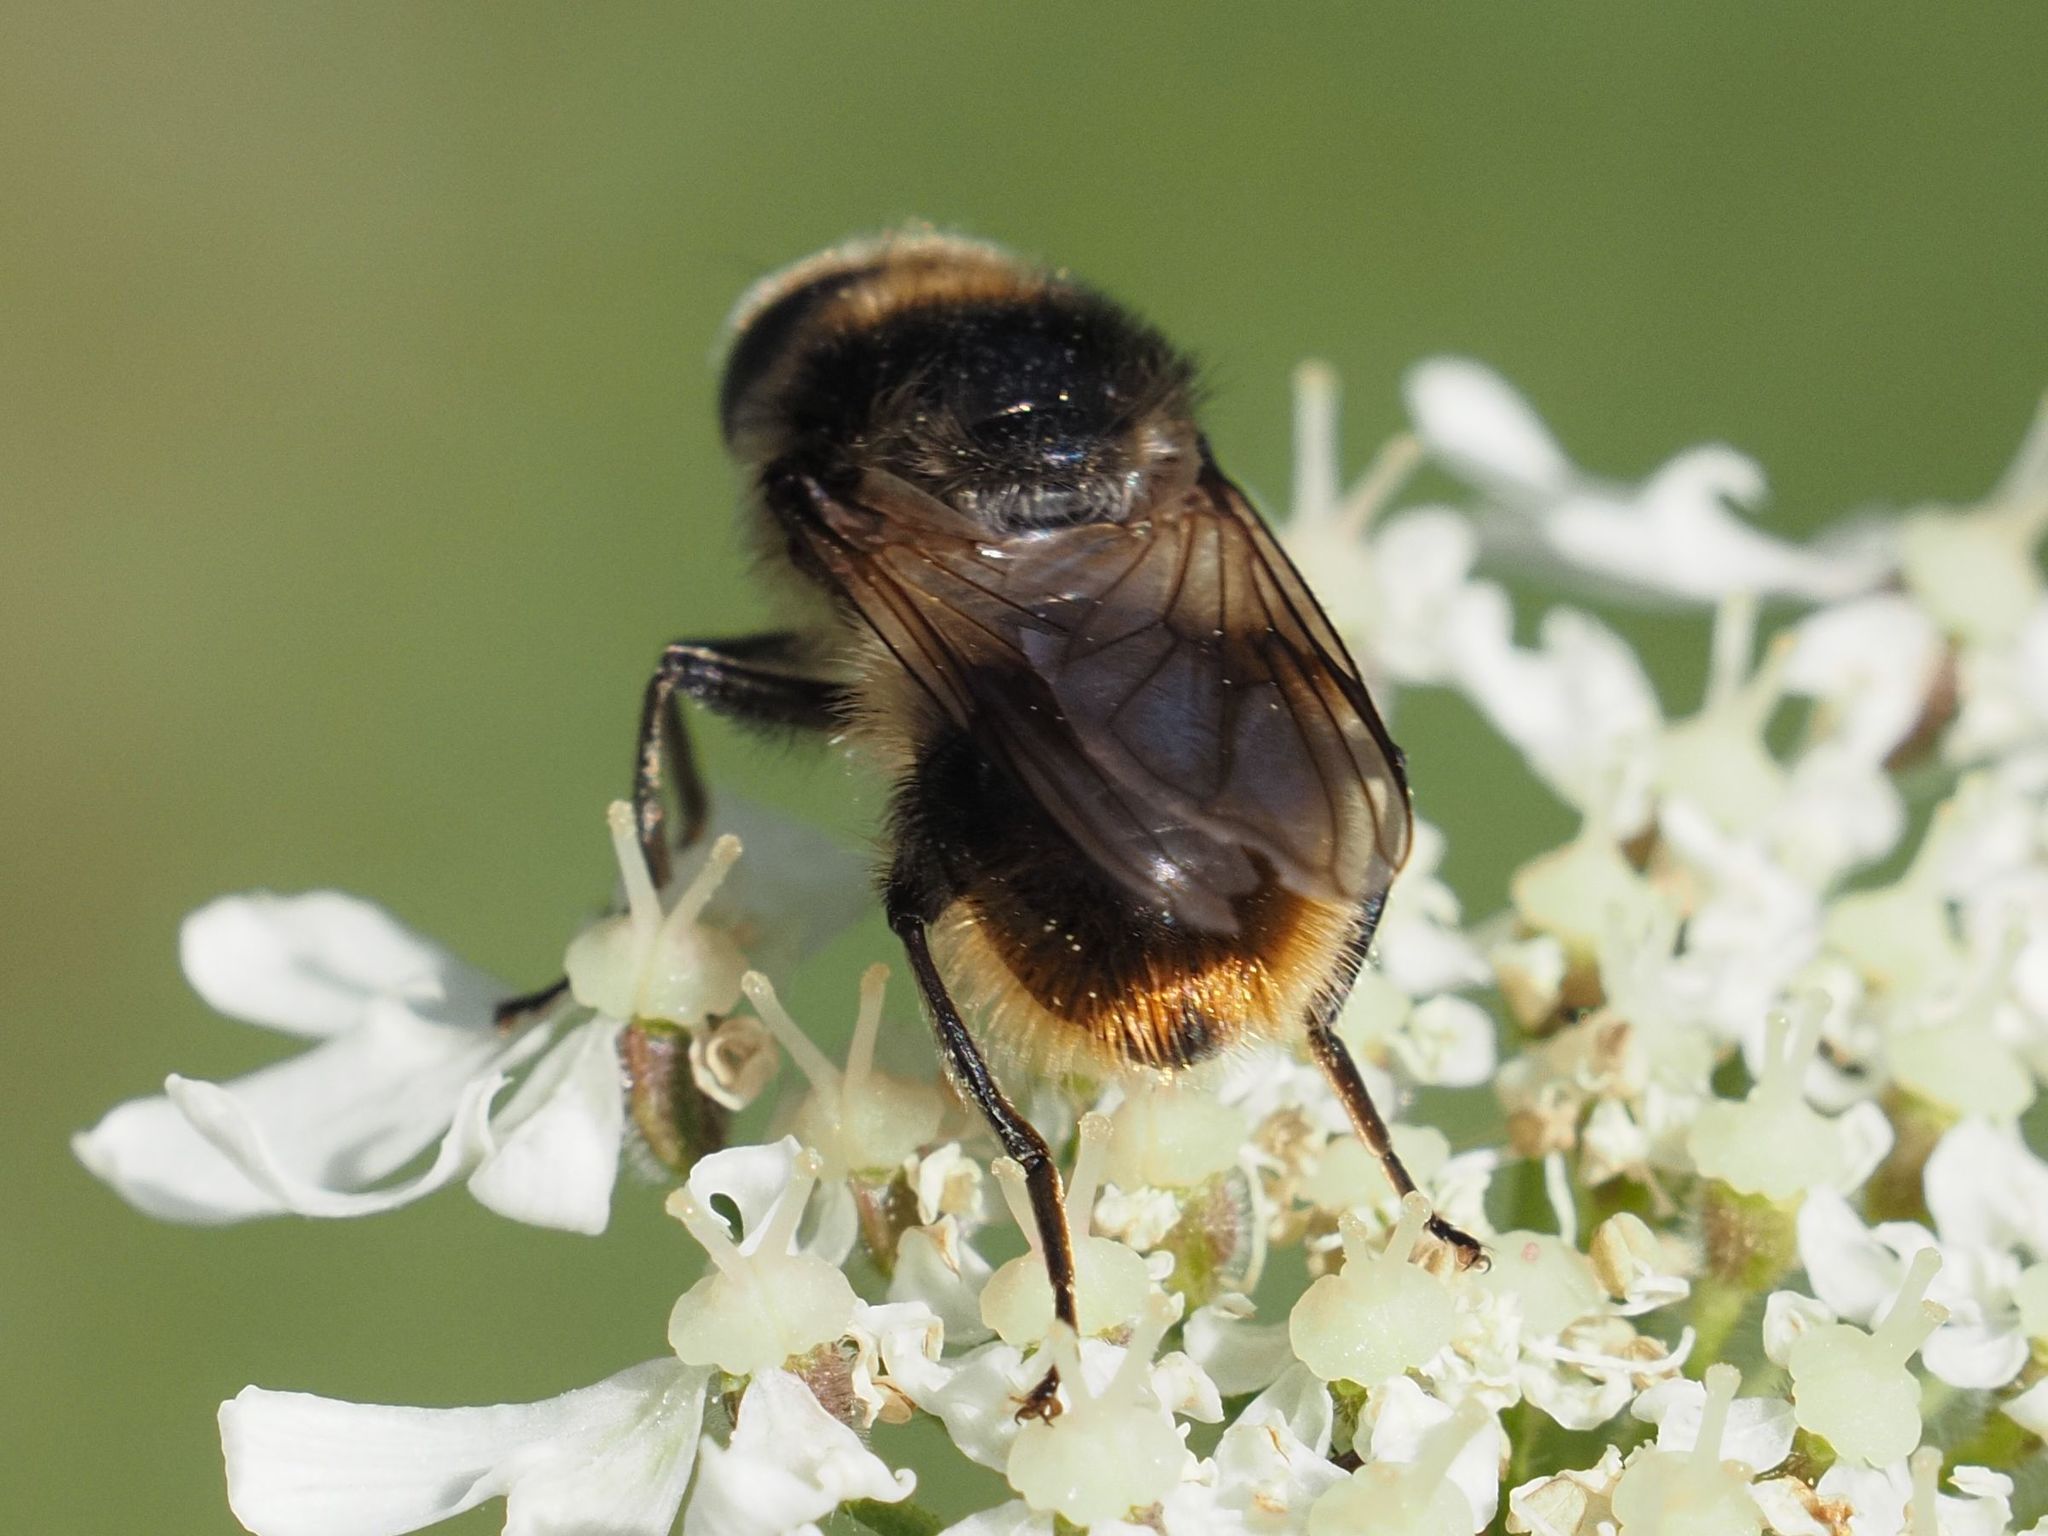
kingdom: Animalia
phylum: Arthropoda
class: Insecta
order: Diptera
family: Syrphidae
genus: Cheilosia
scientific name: Cheilosia illustrata
